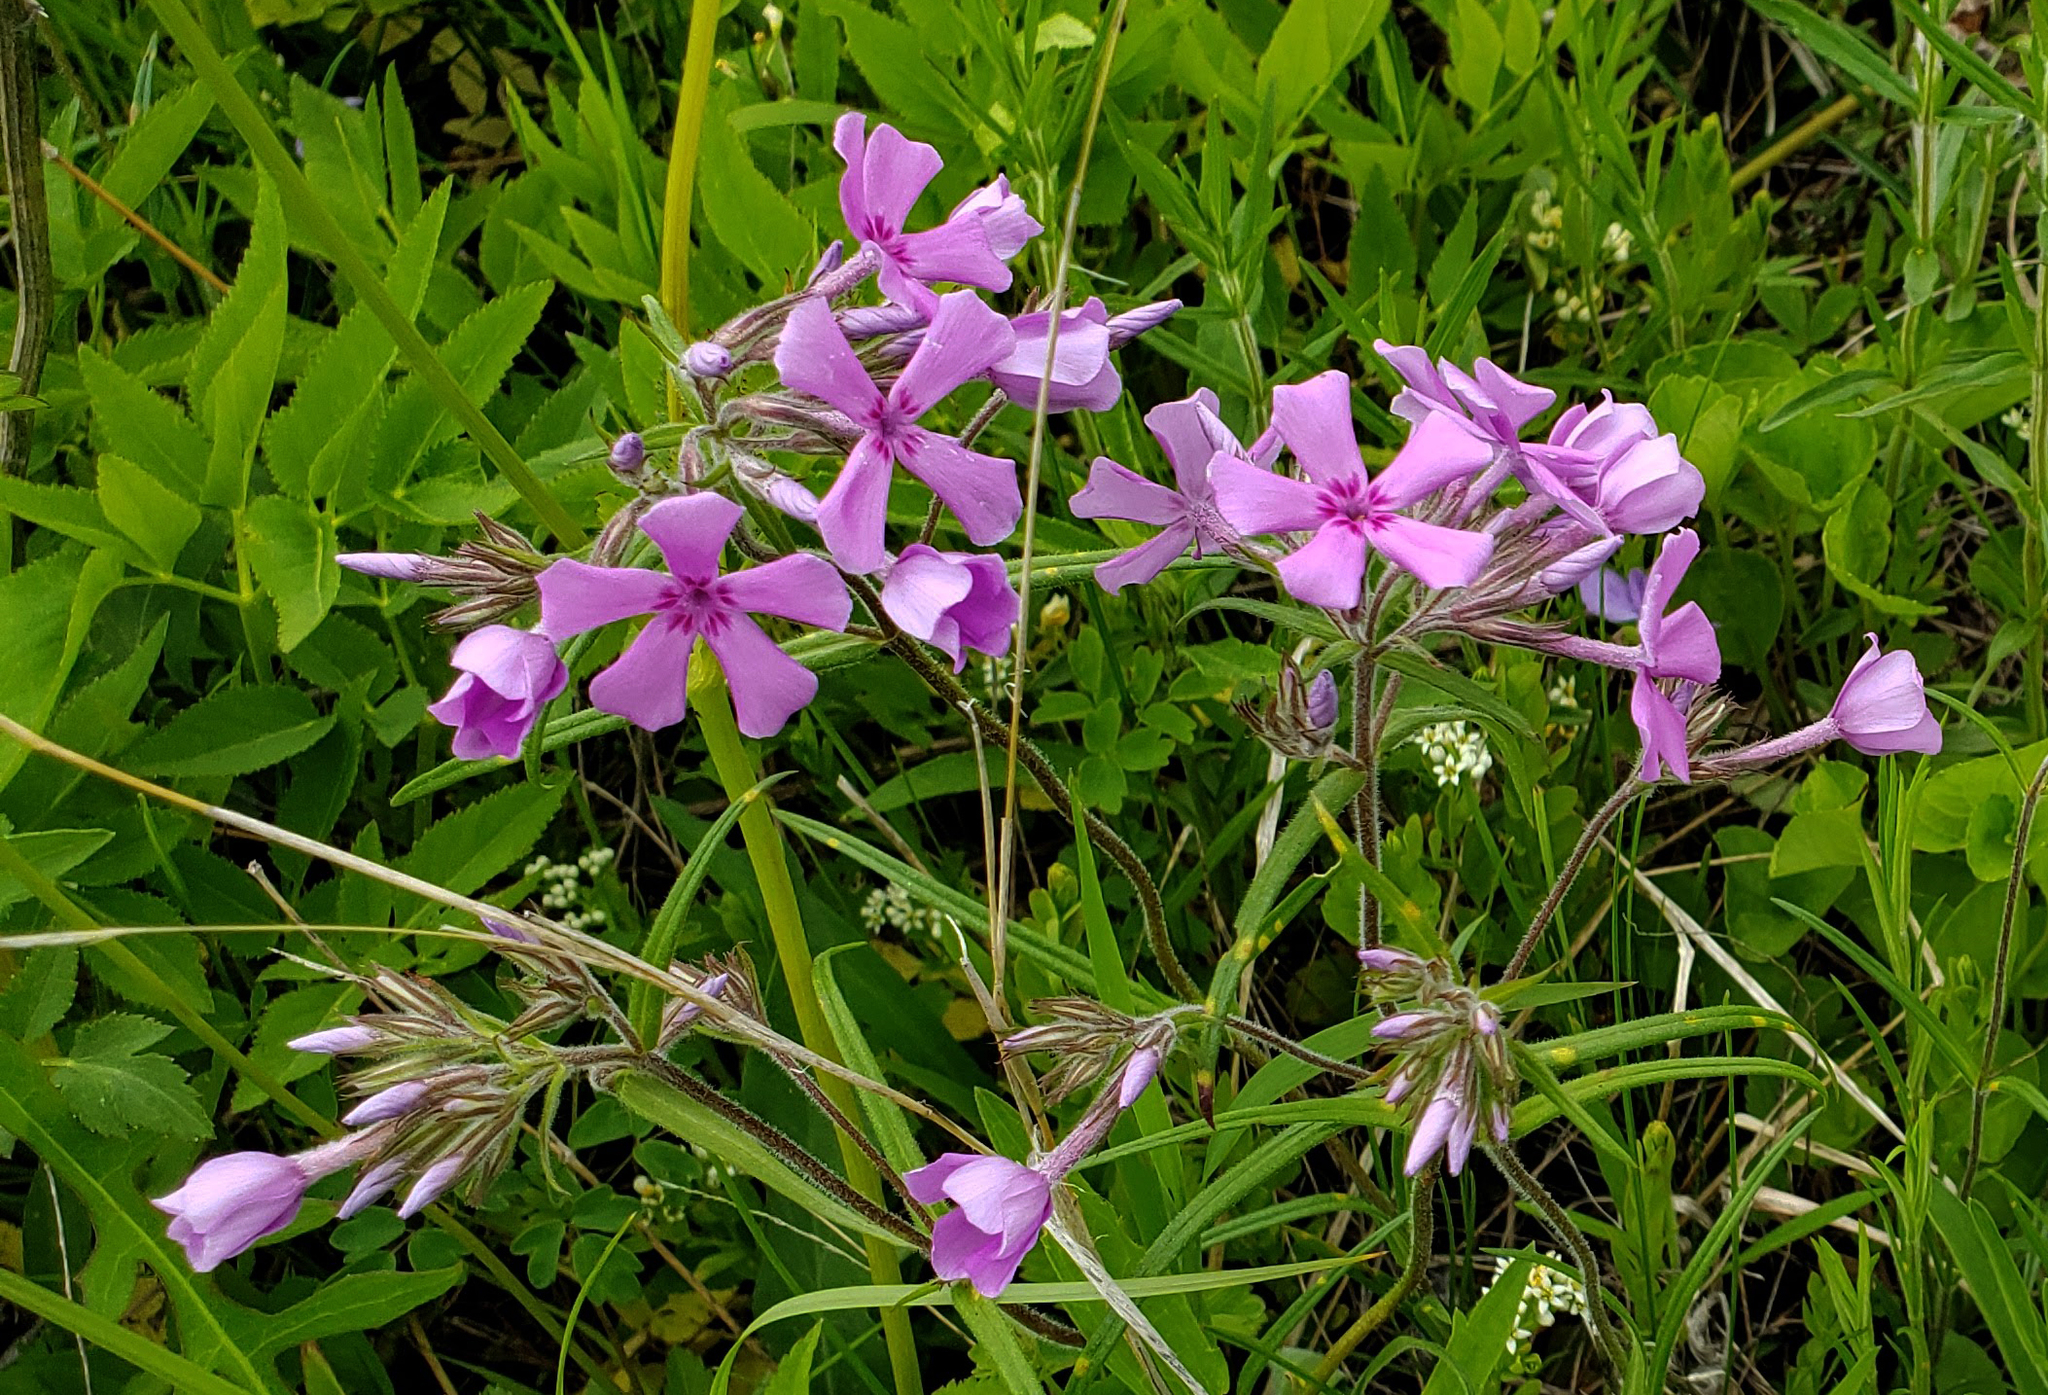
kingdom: Plantae
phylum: Tracheophyta
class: Magnoliopsida
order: Ericales
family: Polemoniaceae
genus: Phlox
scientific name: Phlox pilosa
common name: Prairie phlox
